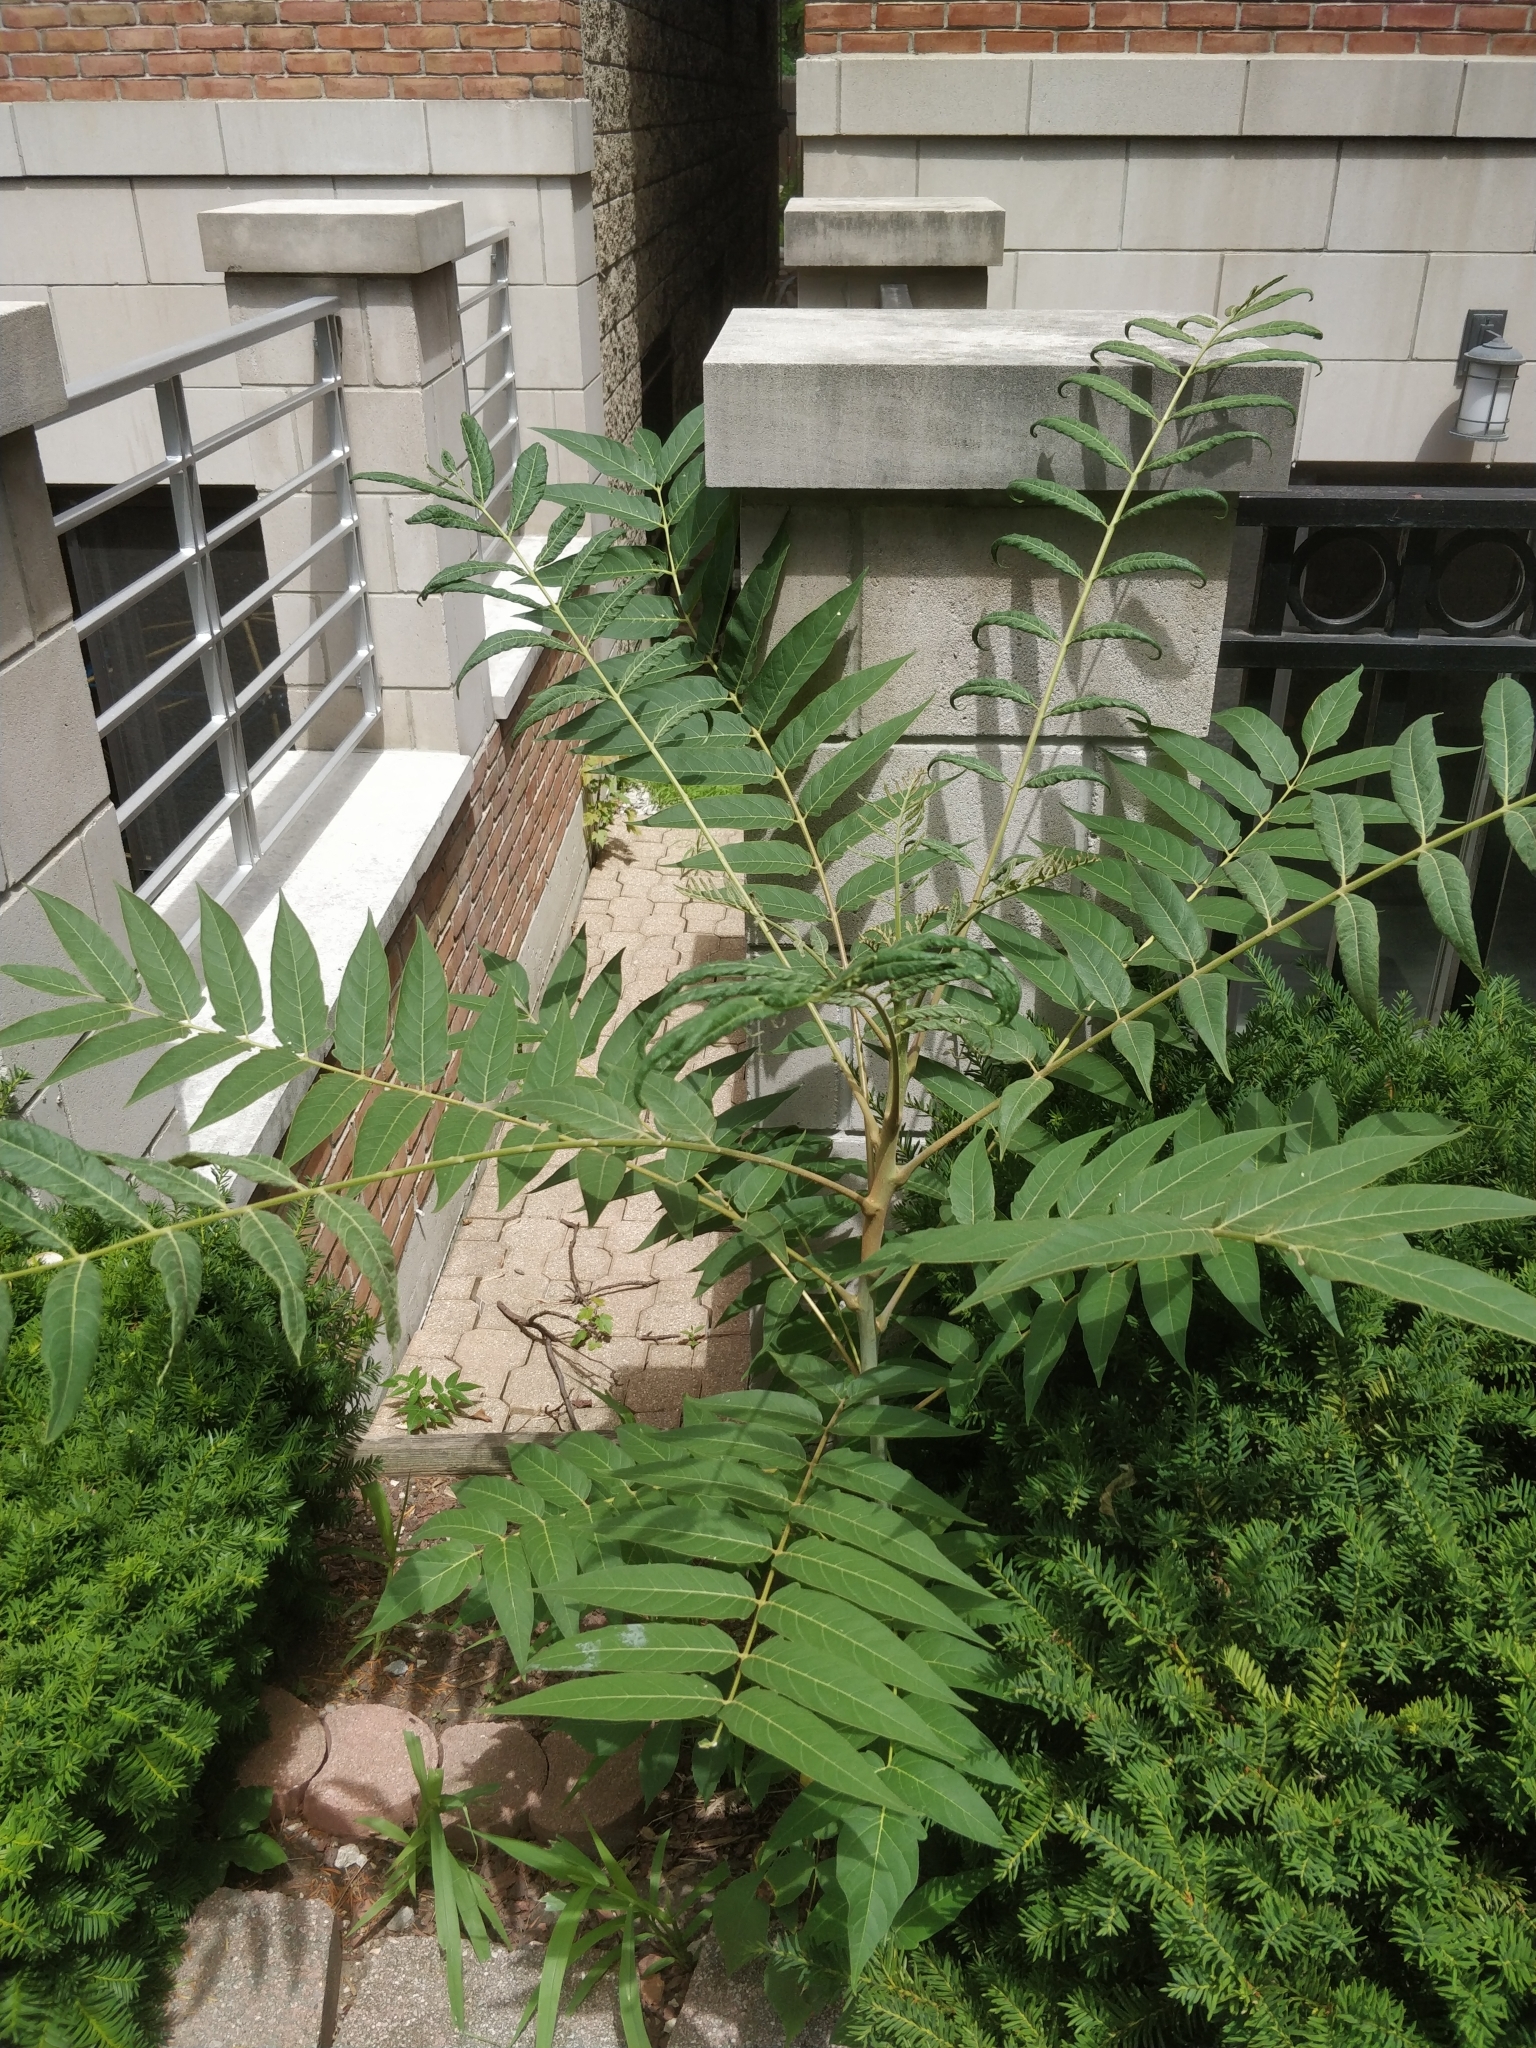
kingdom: Plantae
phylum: Tracheophyta
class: Magnoliopsida
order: Sapindales
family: Simaroubaceae
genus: Ailanthus
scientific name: Ailanthus altissima
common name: Tree-of-heaven
